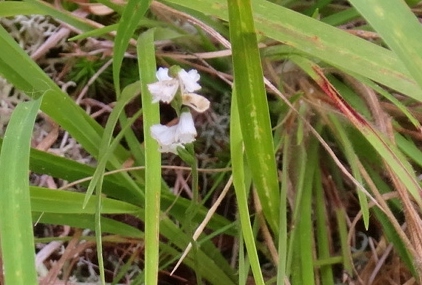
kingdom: Plantae
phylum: Tracheophyta
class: Liliopsida
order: Asparagales
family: Orchidaceae
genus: Spiranthes
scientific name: Spiranthes tuberosa
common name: Little ladies'-tresses
